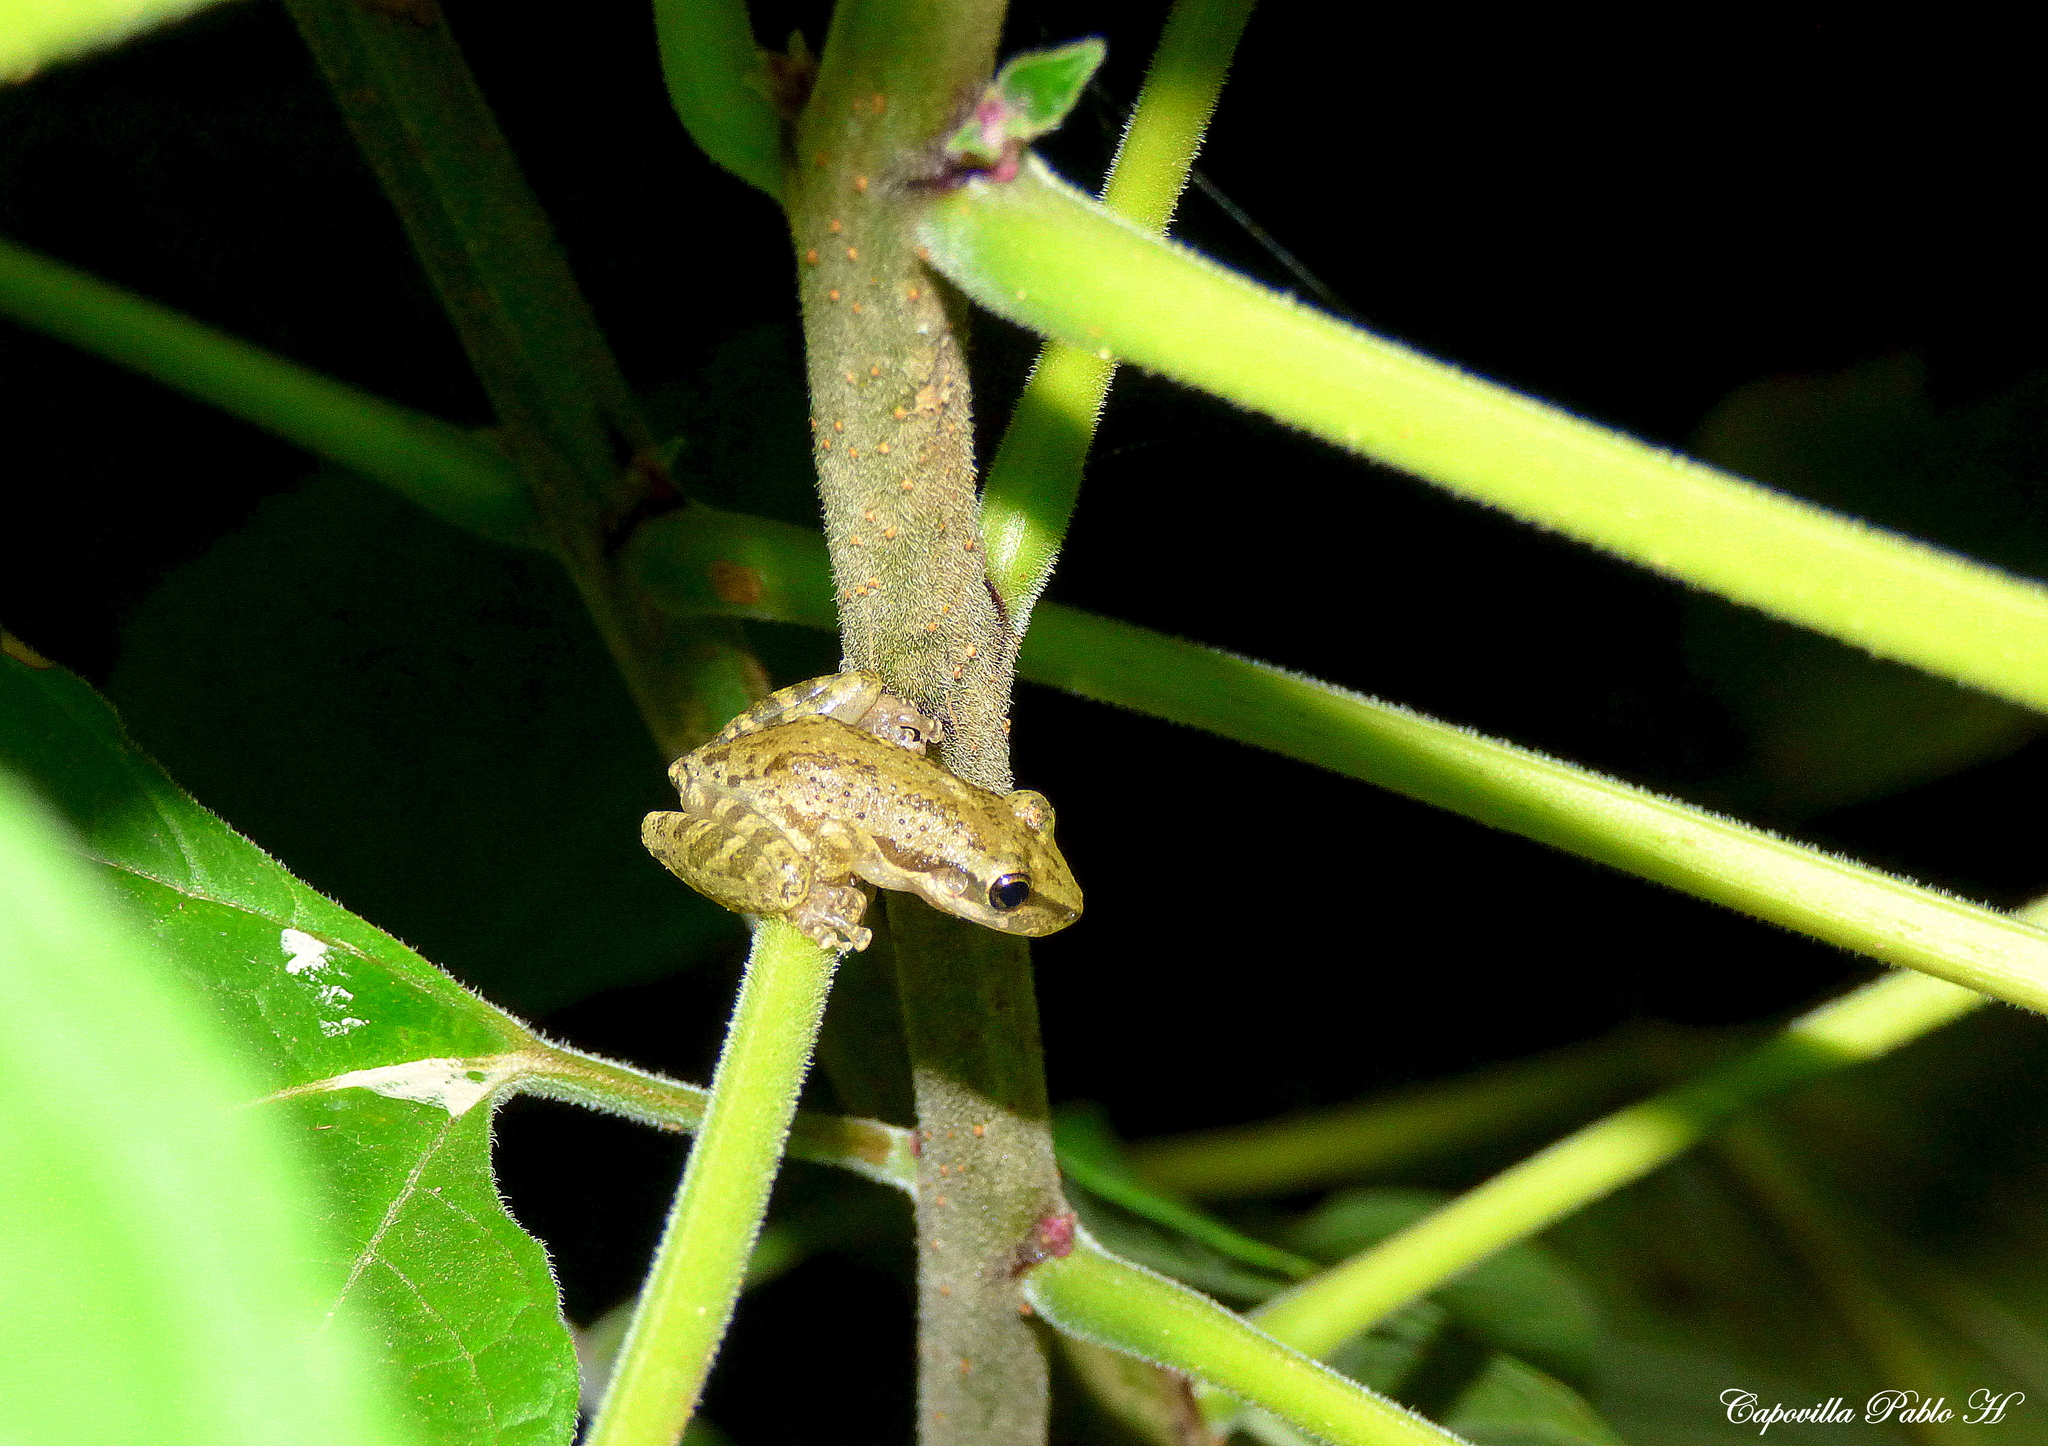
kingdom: Animalia
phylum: Chordata
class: Amphibia
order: Anura
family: Hylidae
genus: Scinax
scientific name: Scinax nasicus
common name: Lesser snouted treefrog
